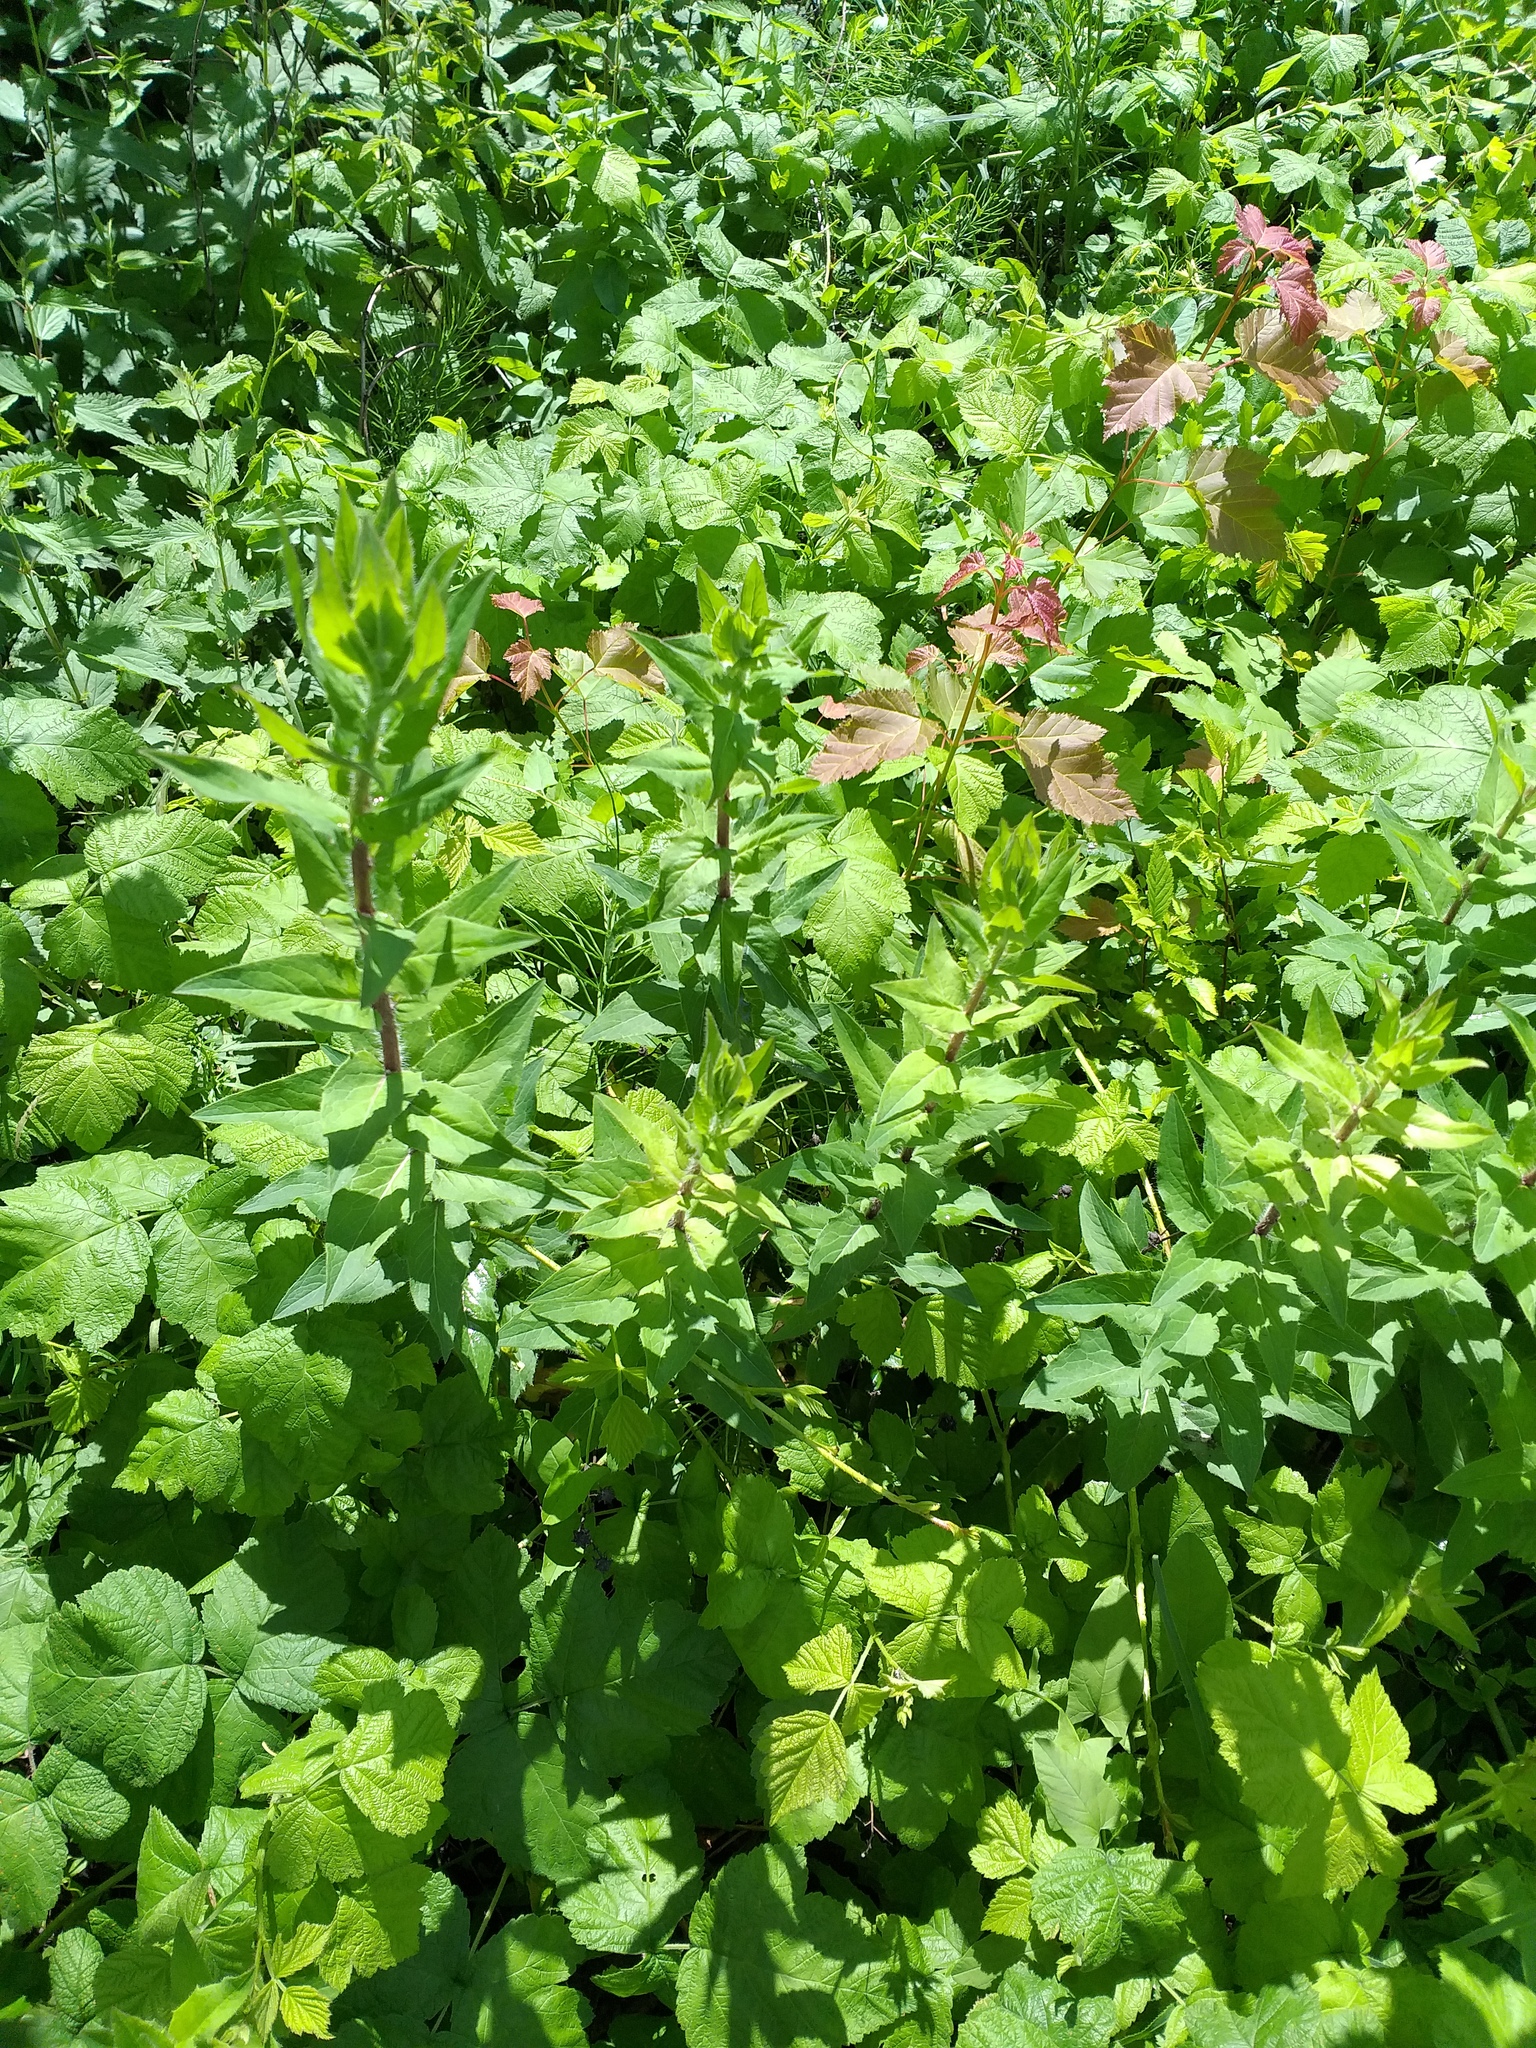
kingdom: Plantae
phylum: Tracheophyta
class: Magnoliopsida
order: Asterales
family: Asteraceae
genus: Hieracium
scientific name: Hieracium virosum
